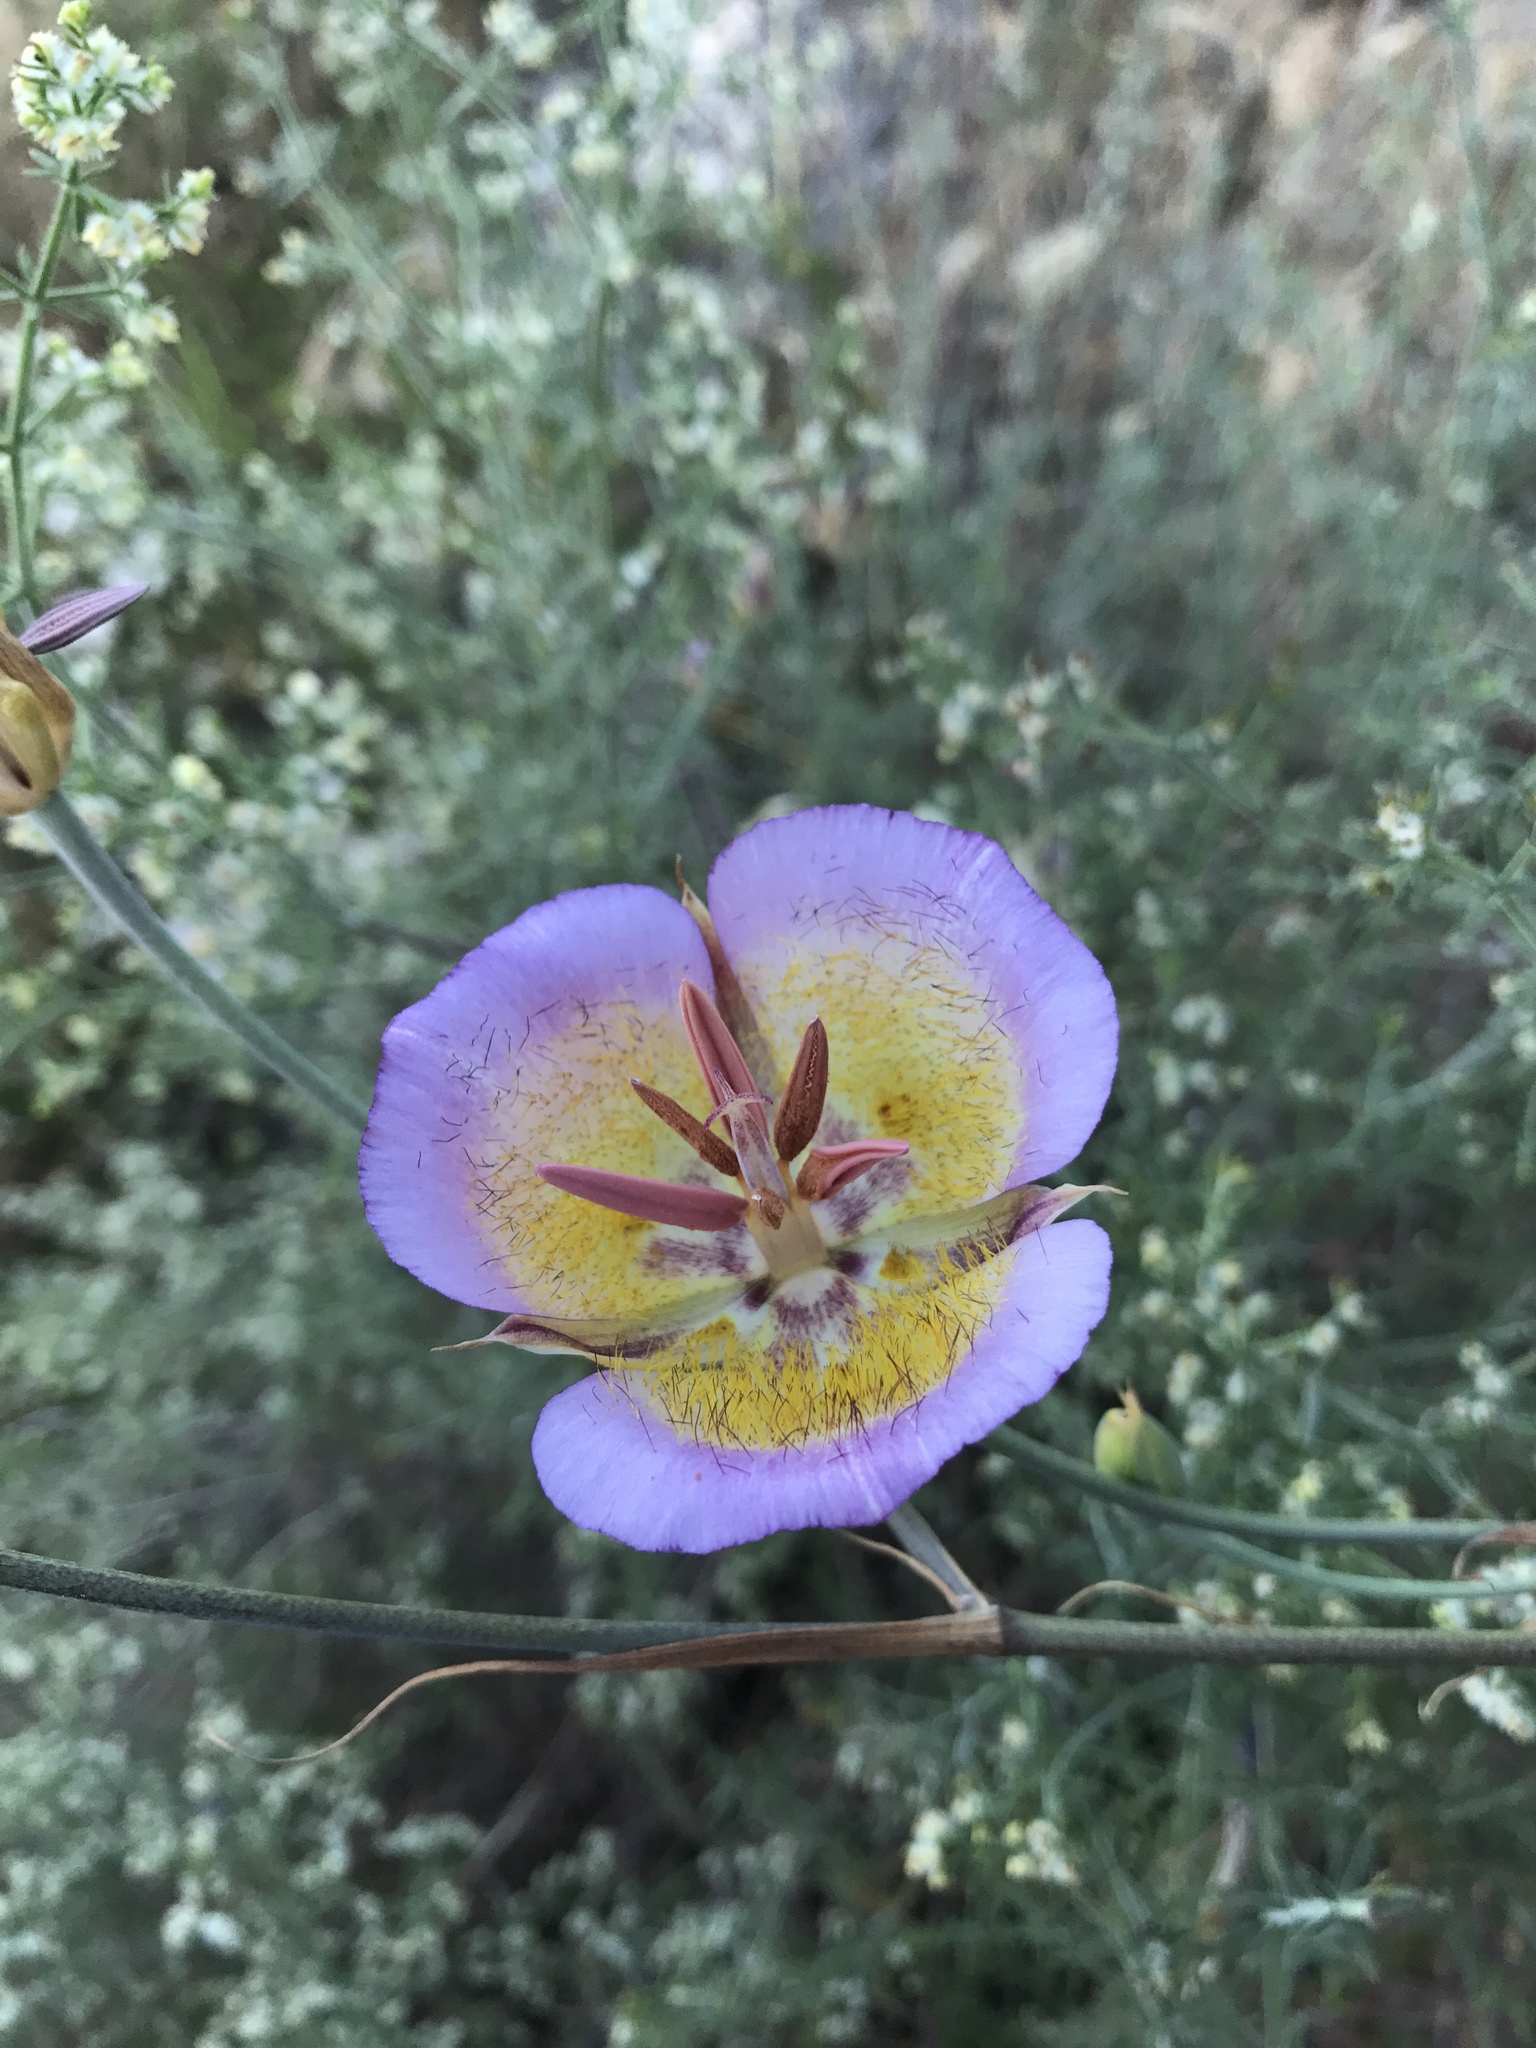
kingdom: Plantae
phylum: Tracheophyta
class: Liliopsida
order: Liliales
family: Liliaceae
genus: Calochortus
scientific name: Calochortus plummerae
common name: Plummer's mariposa-lily
